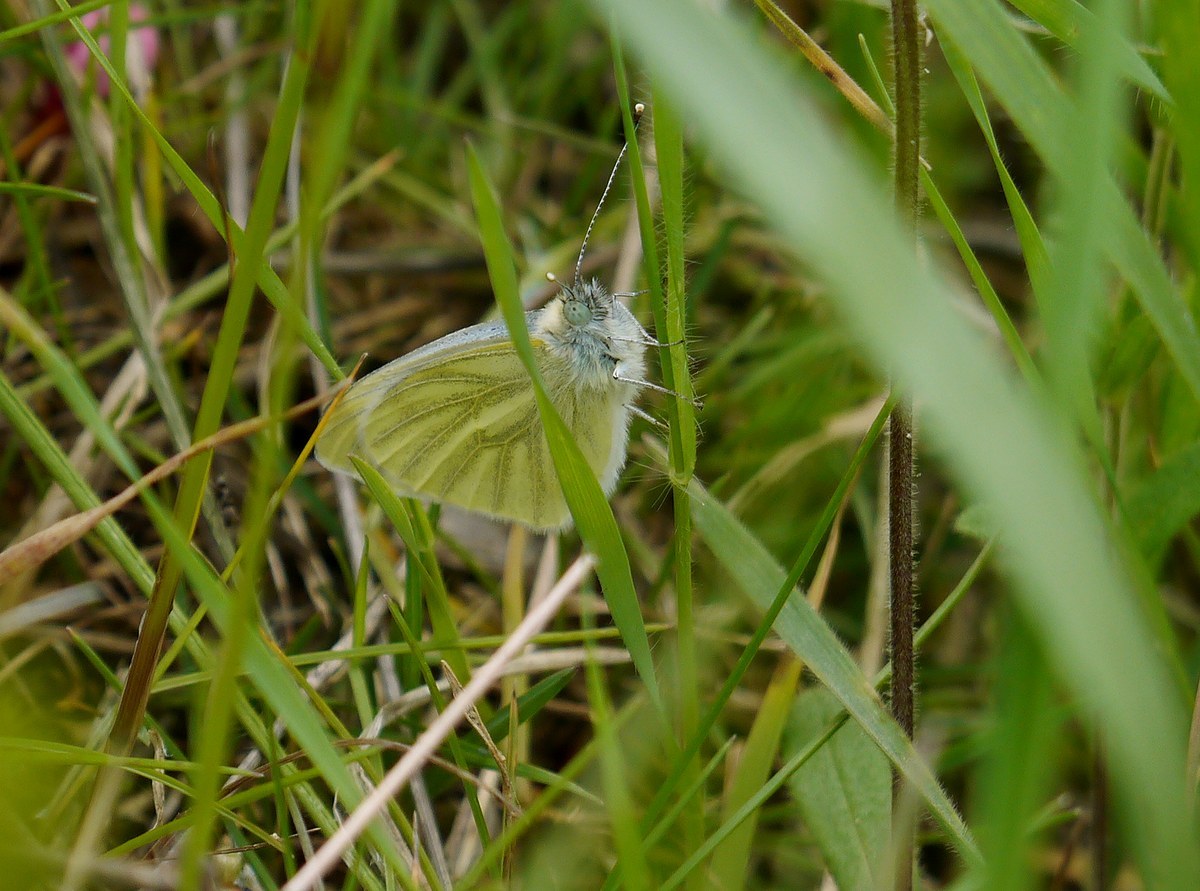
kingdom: Animalia
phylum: Arthropoda
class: Insecta
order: Lepidoptera
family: Pieridae
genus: Pieris
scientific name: Pieris napi
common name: Green-veined white
